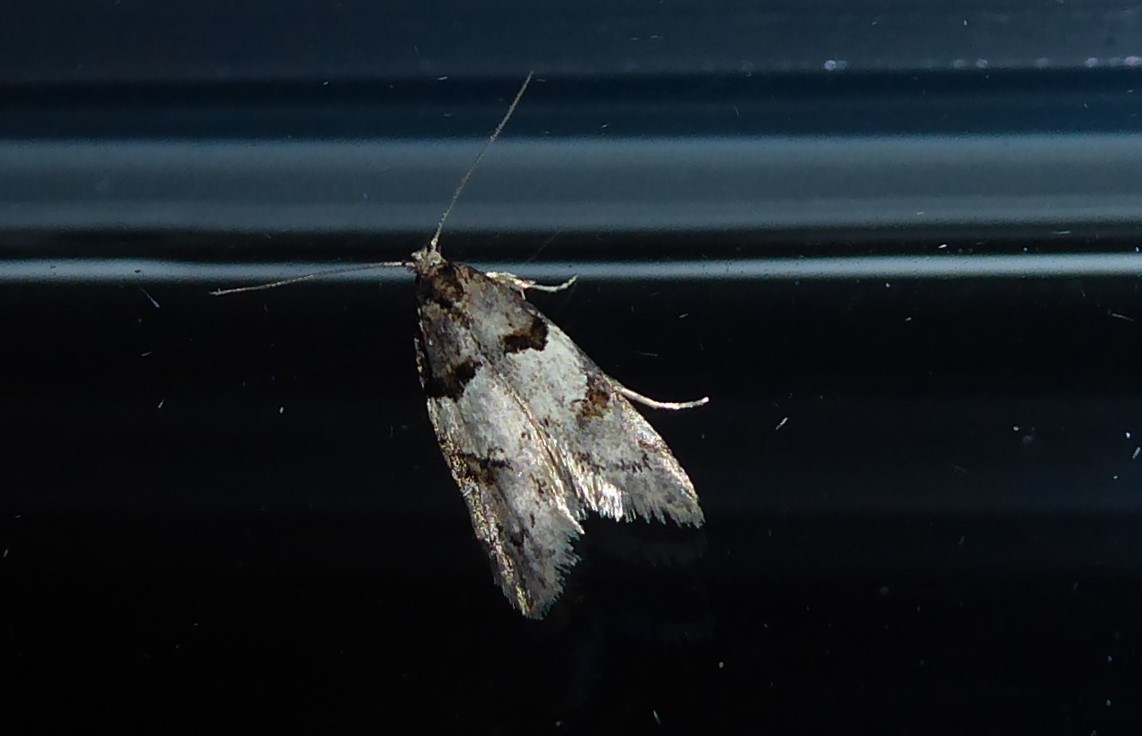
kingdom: Animalia
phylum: Arthropoda
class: Insecta
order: Lepidoptera
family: Oecophoridae
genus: Trachypepla
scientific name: Trachypepla contritella
